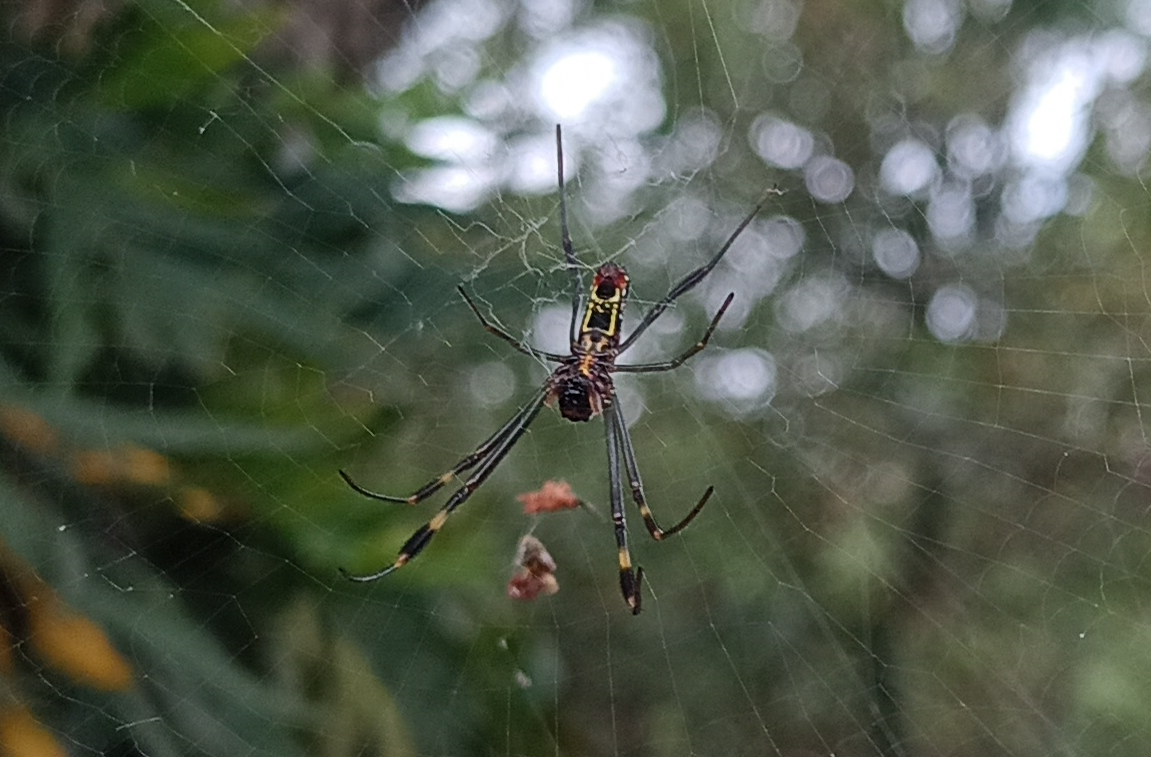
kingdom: Animalia
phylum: Arthropoda
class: Arachnida
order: Araneae
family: Araneidae
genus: Trichonephila
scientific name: Trichonephila clavipes
